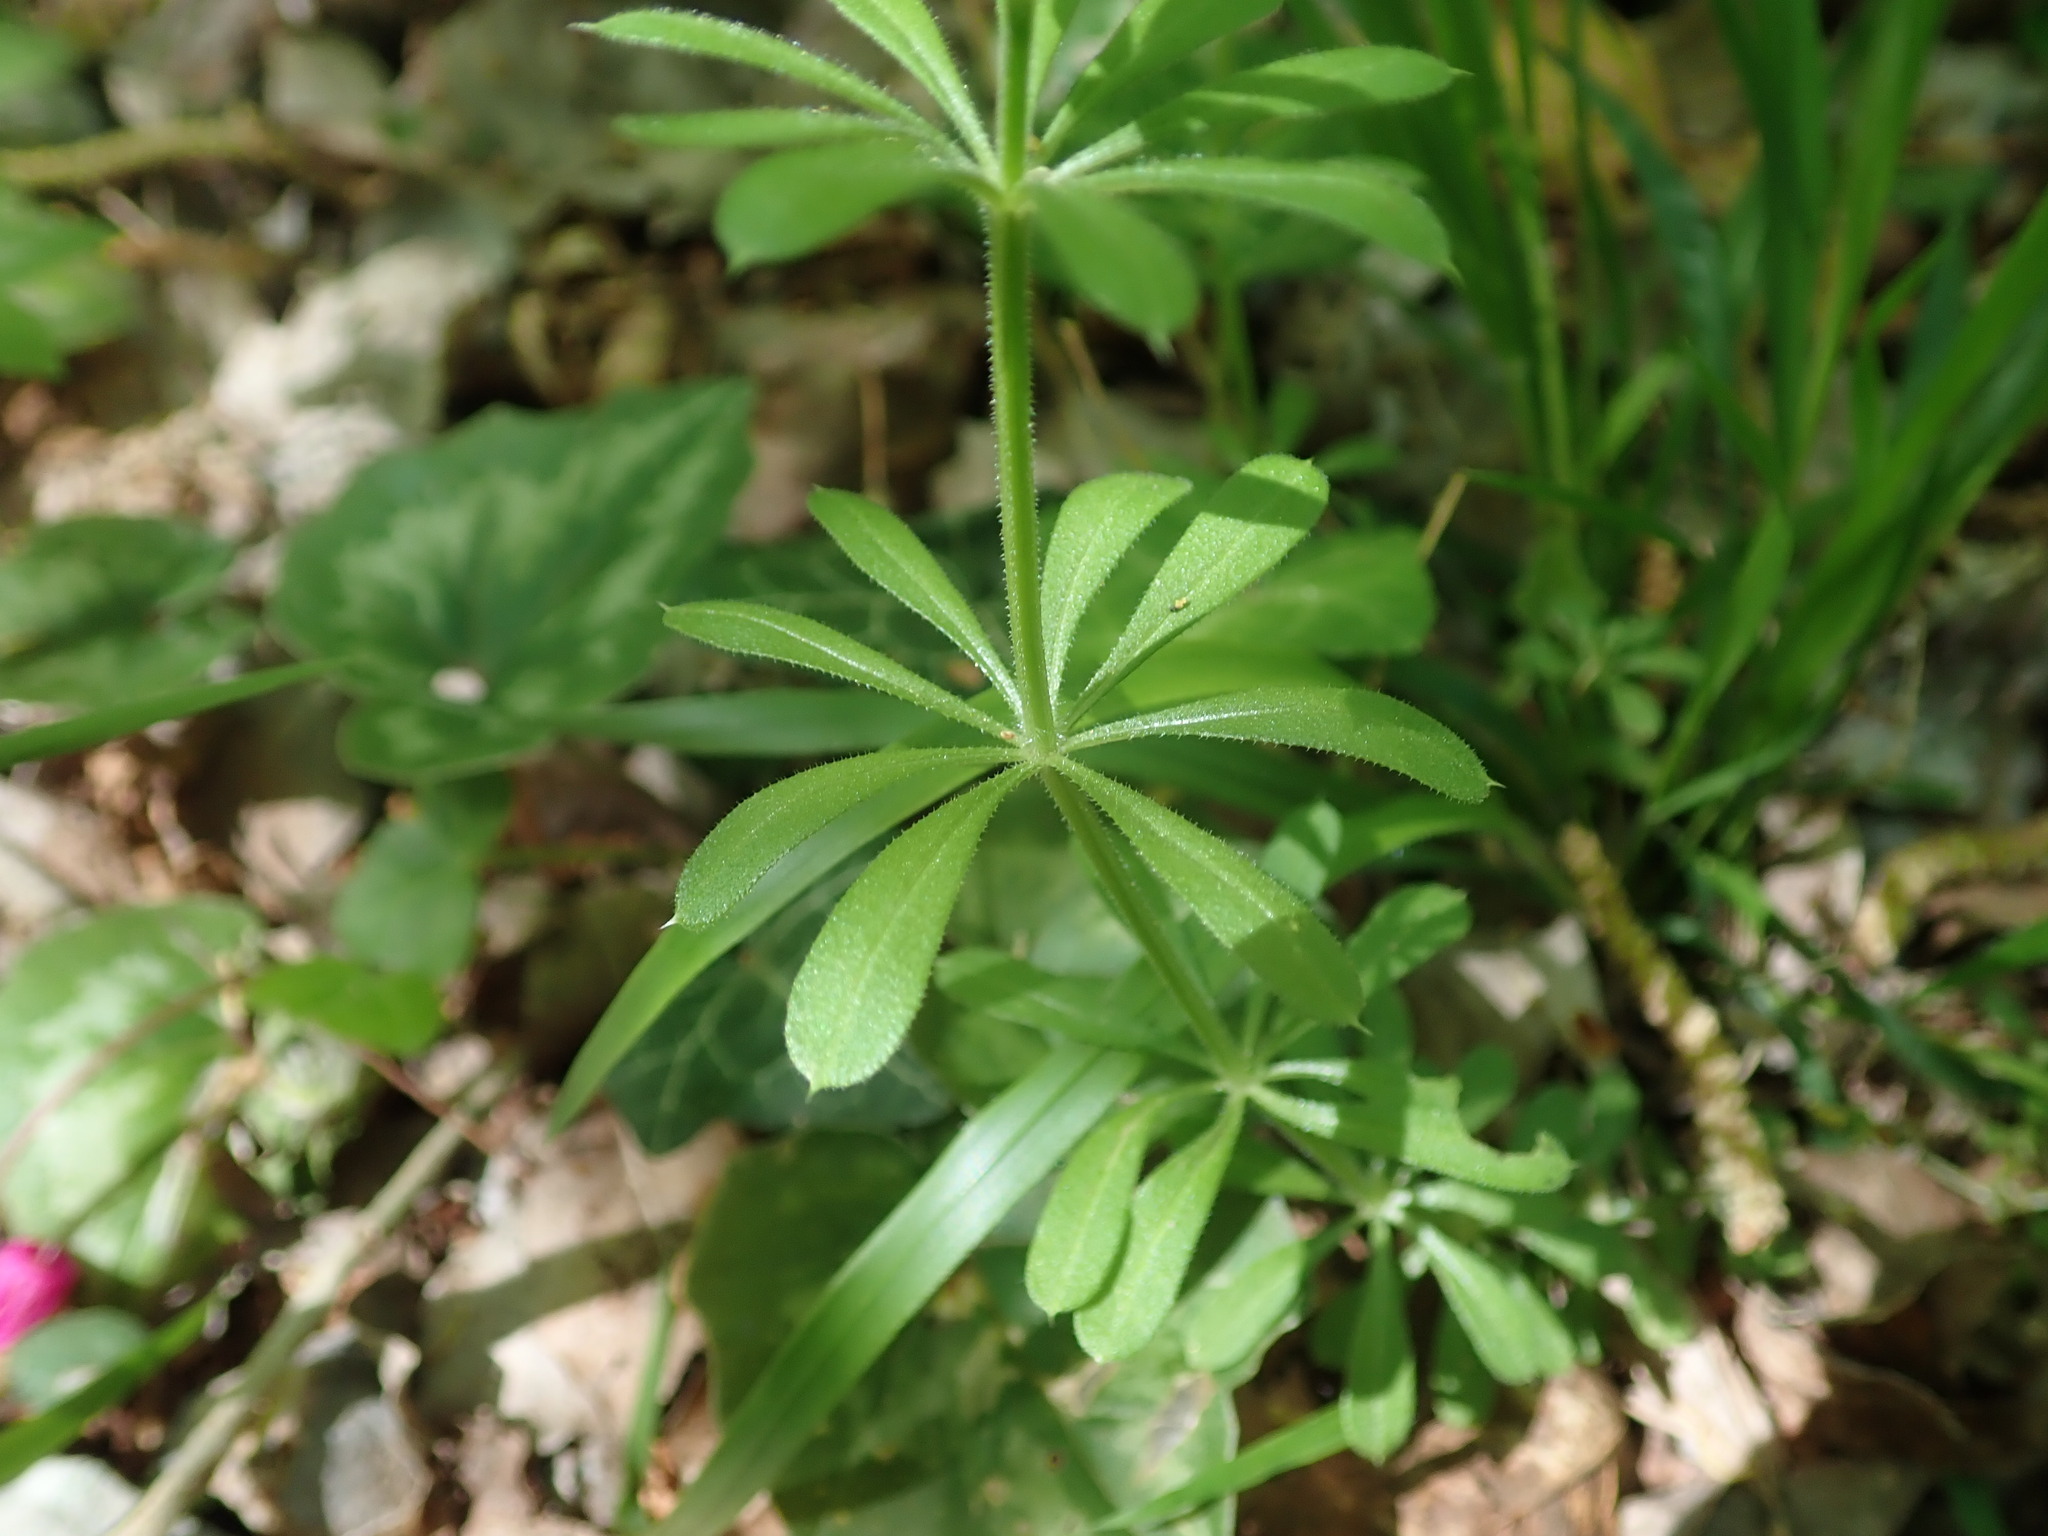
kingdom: Plantae
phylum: Tracheophyta
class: Magnoliopsida
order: Gentianales
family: Rubiaceae
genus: Galium
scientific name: Galium aparine
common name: Cleavers
